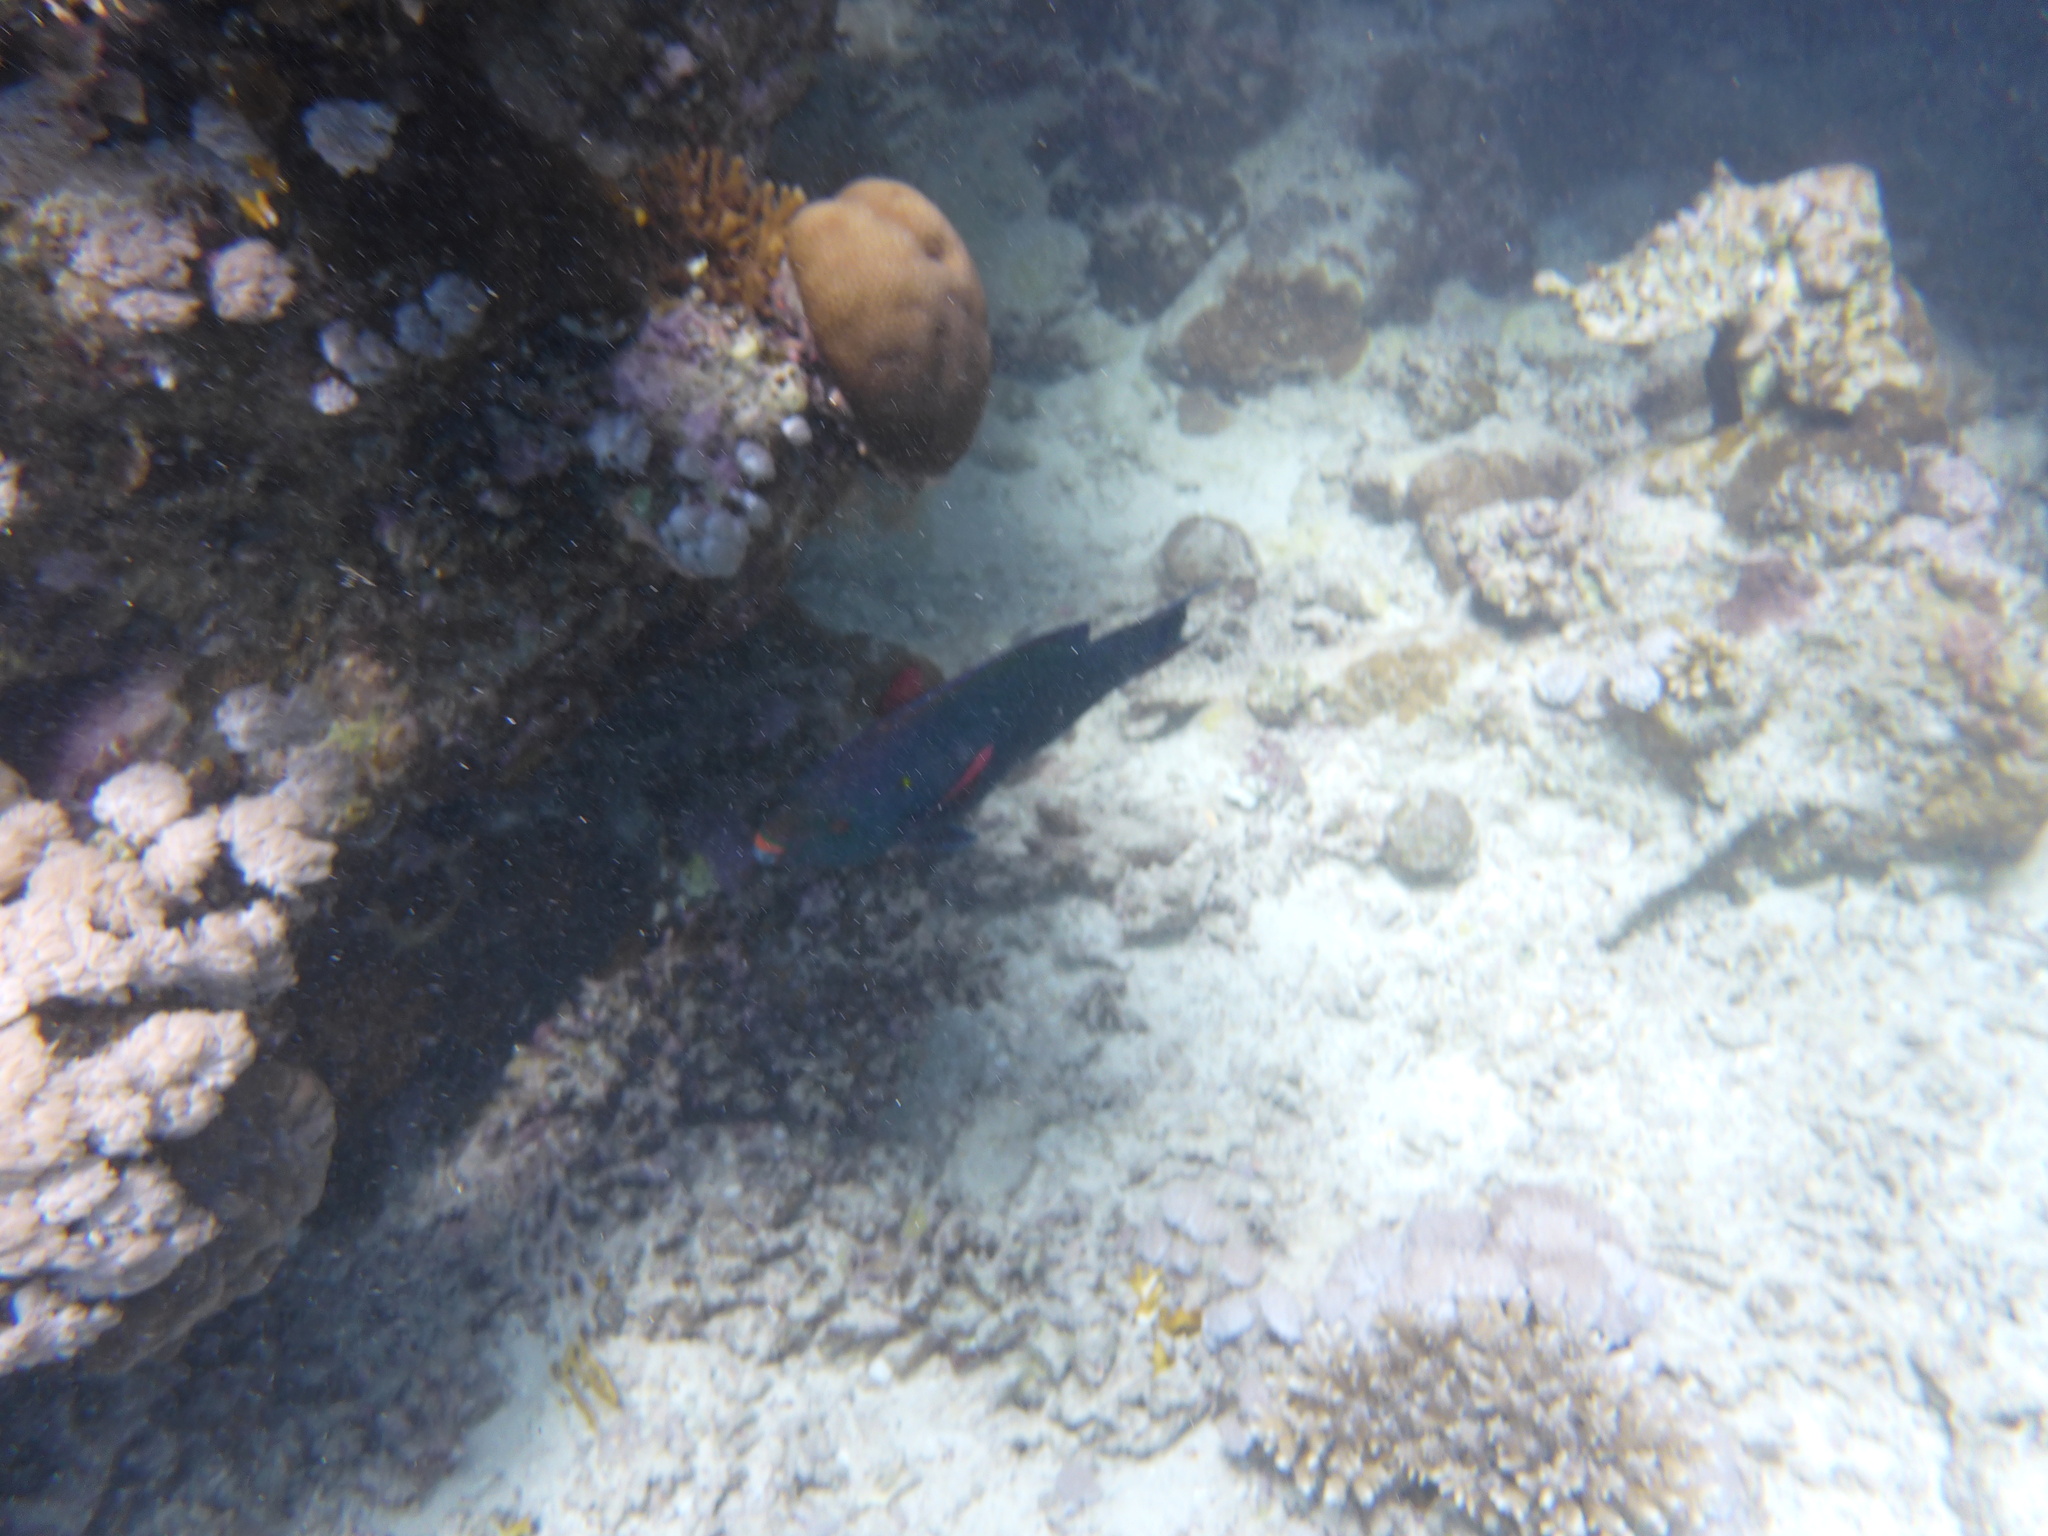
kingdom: Animalia
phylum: Chordata
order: Perciformes
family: Scaridae
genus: Scarus
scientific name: Scarus niger
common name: Dusky parrotfish
